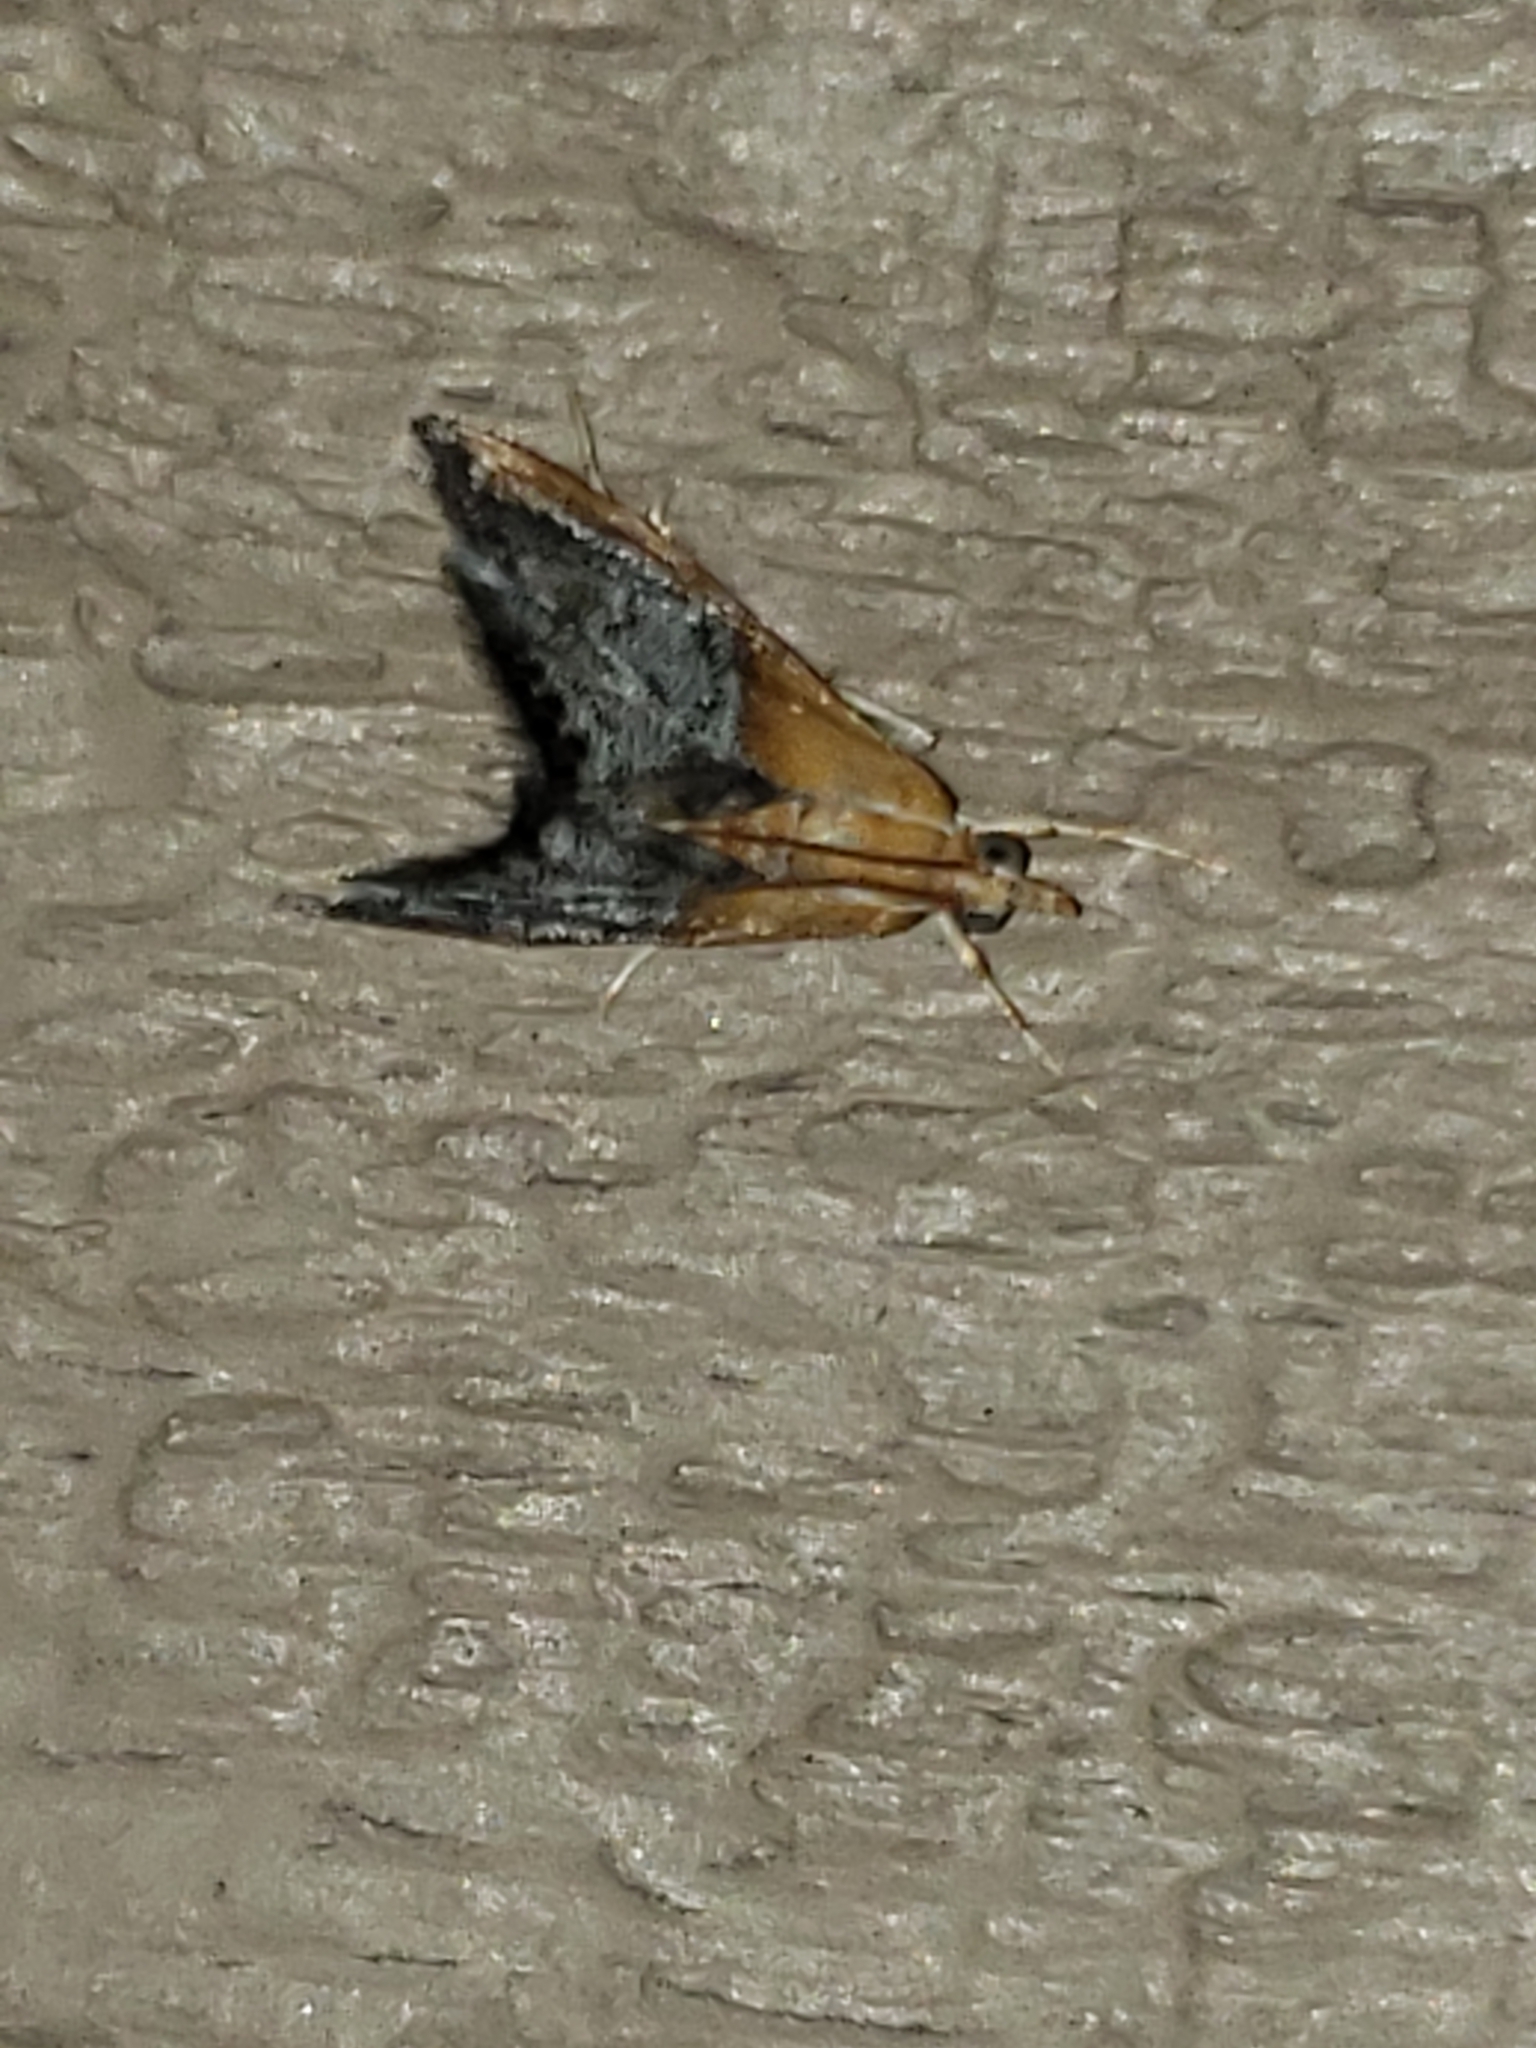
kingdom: Animalia
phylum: Arthropoda
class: Insecta
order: Lepidoptera
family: Crambidae
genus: Chalcoela
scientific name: Chalcoela iphitalis
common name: Sooty-winged chalcoela moth
